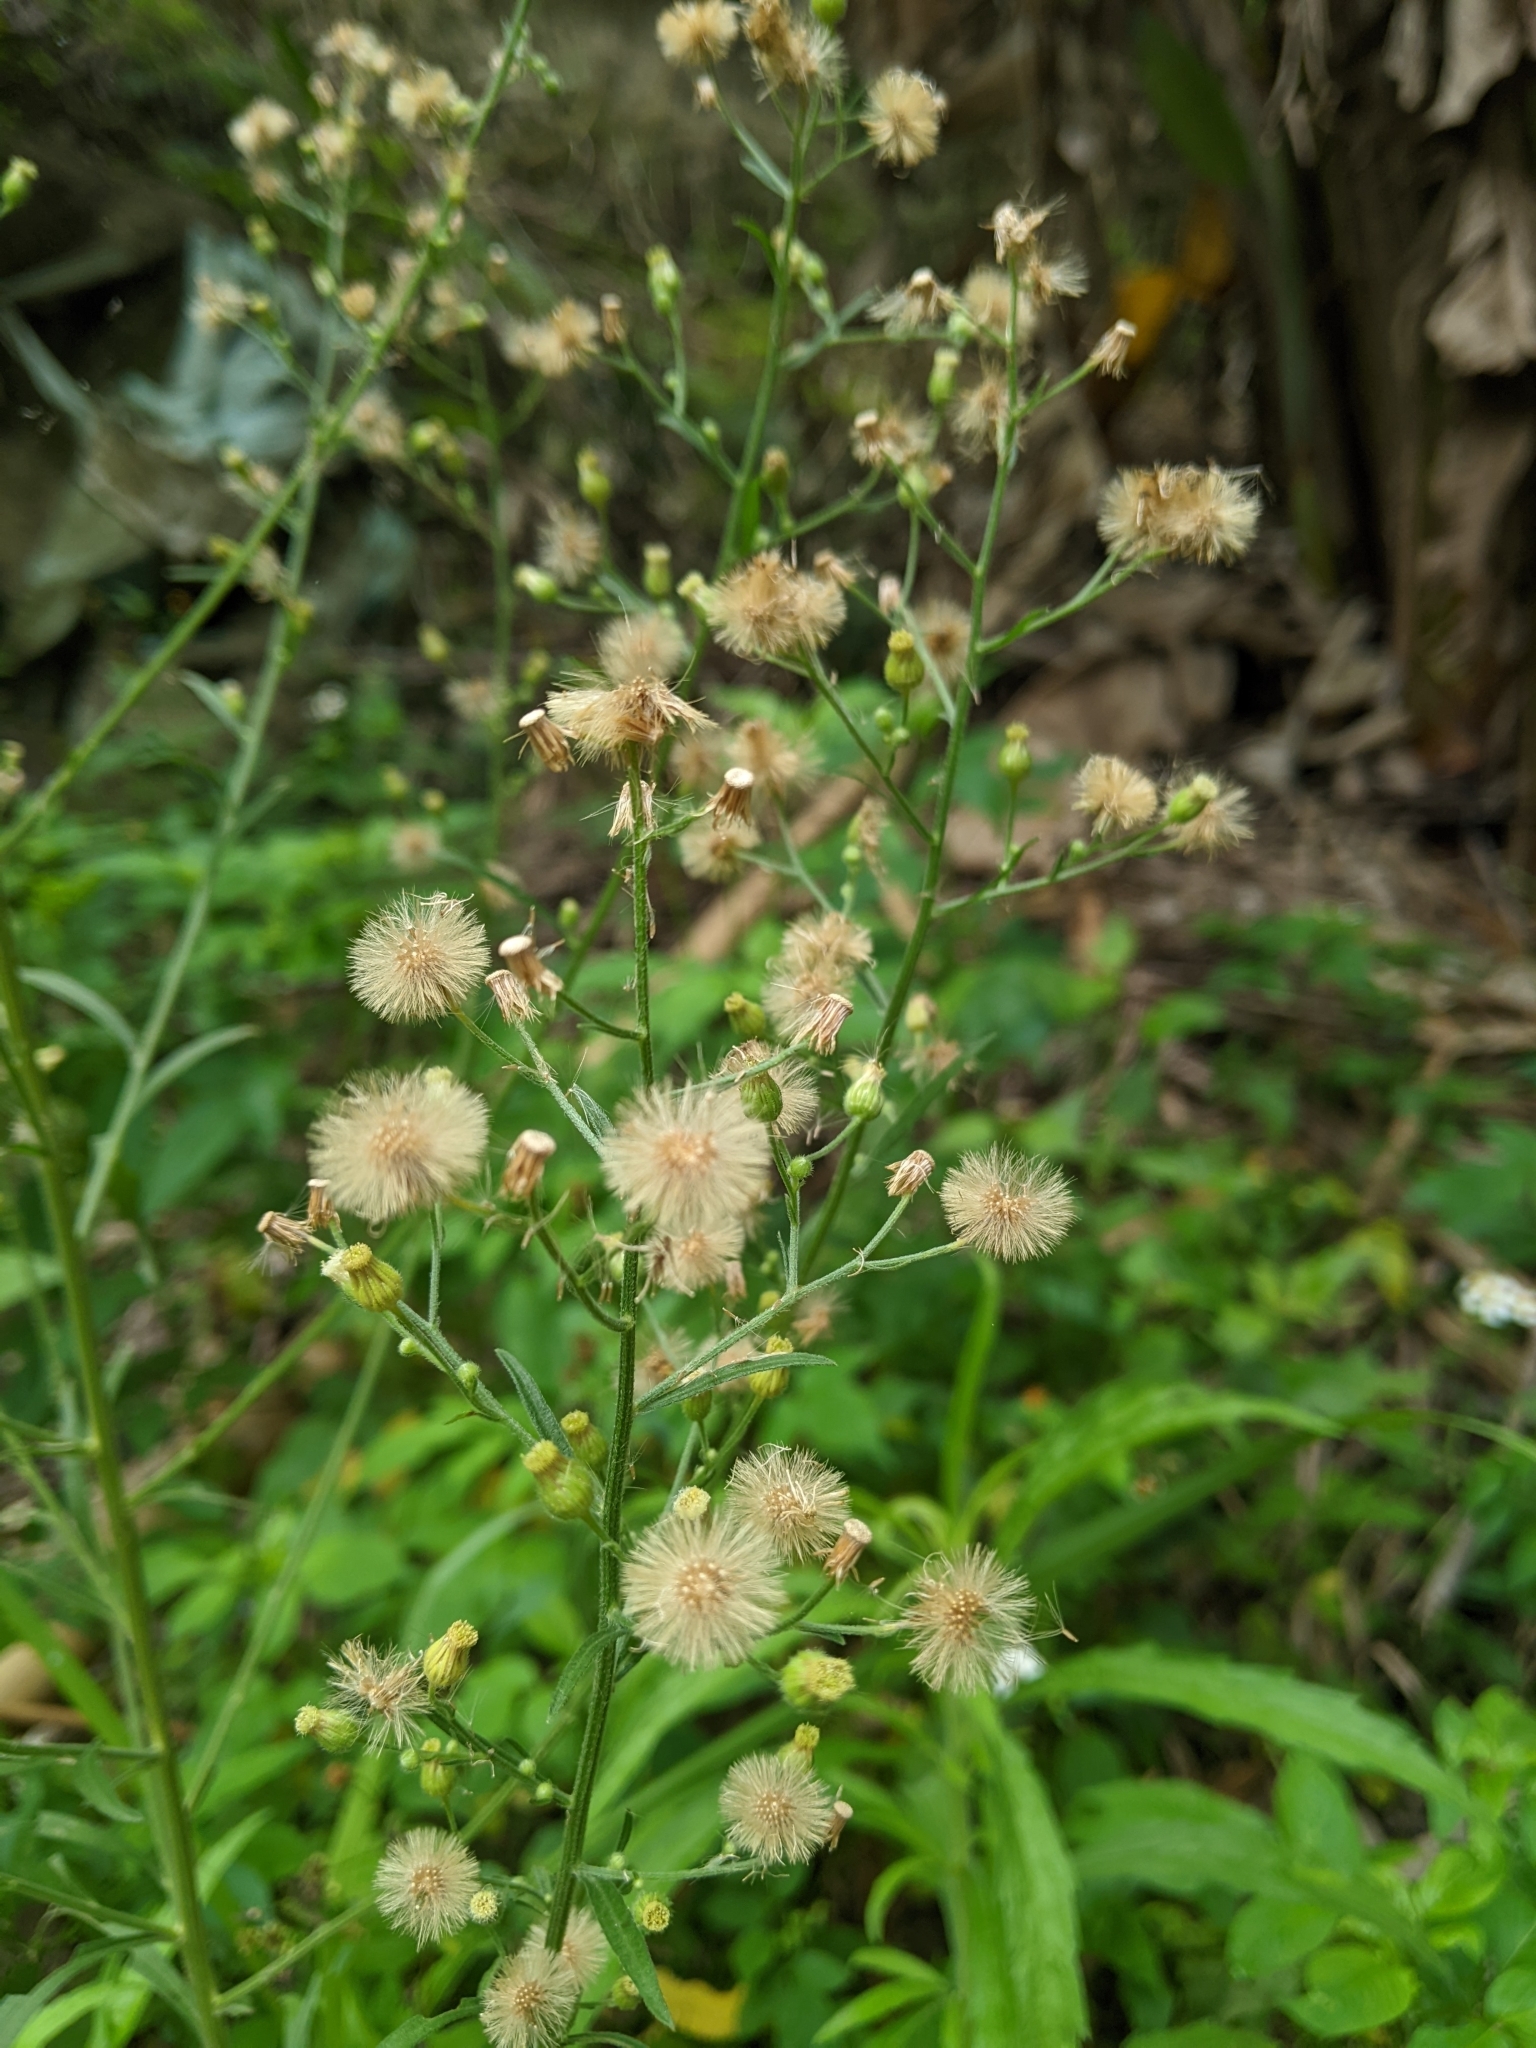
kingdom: Plantae
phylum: Tracheophyta
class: Magnoliopsida
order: Asterales
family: Asteraceae
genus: Erigeron
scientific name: Erigeron sumatrensis
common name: Daisy
